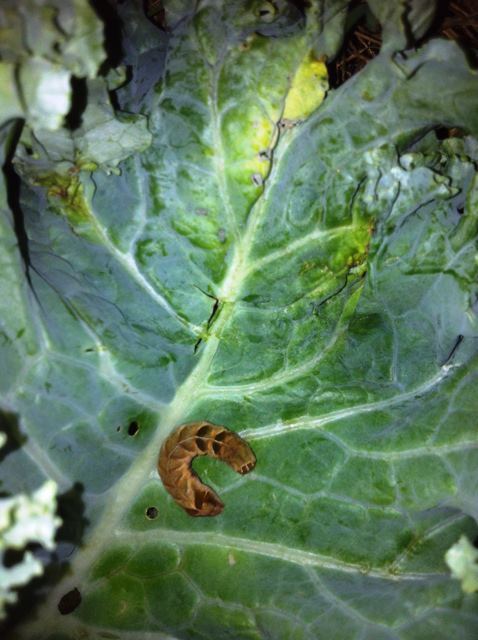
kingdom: Animalia
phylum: Arthropoda
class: Insecta
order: Lepidoptera
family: Noctuidae
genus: Melanchra
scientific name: Melanchra adjuncta
